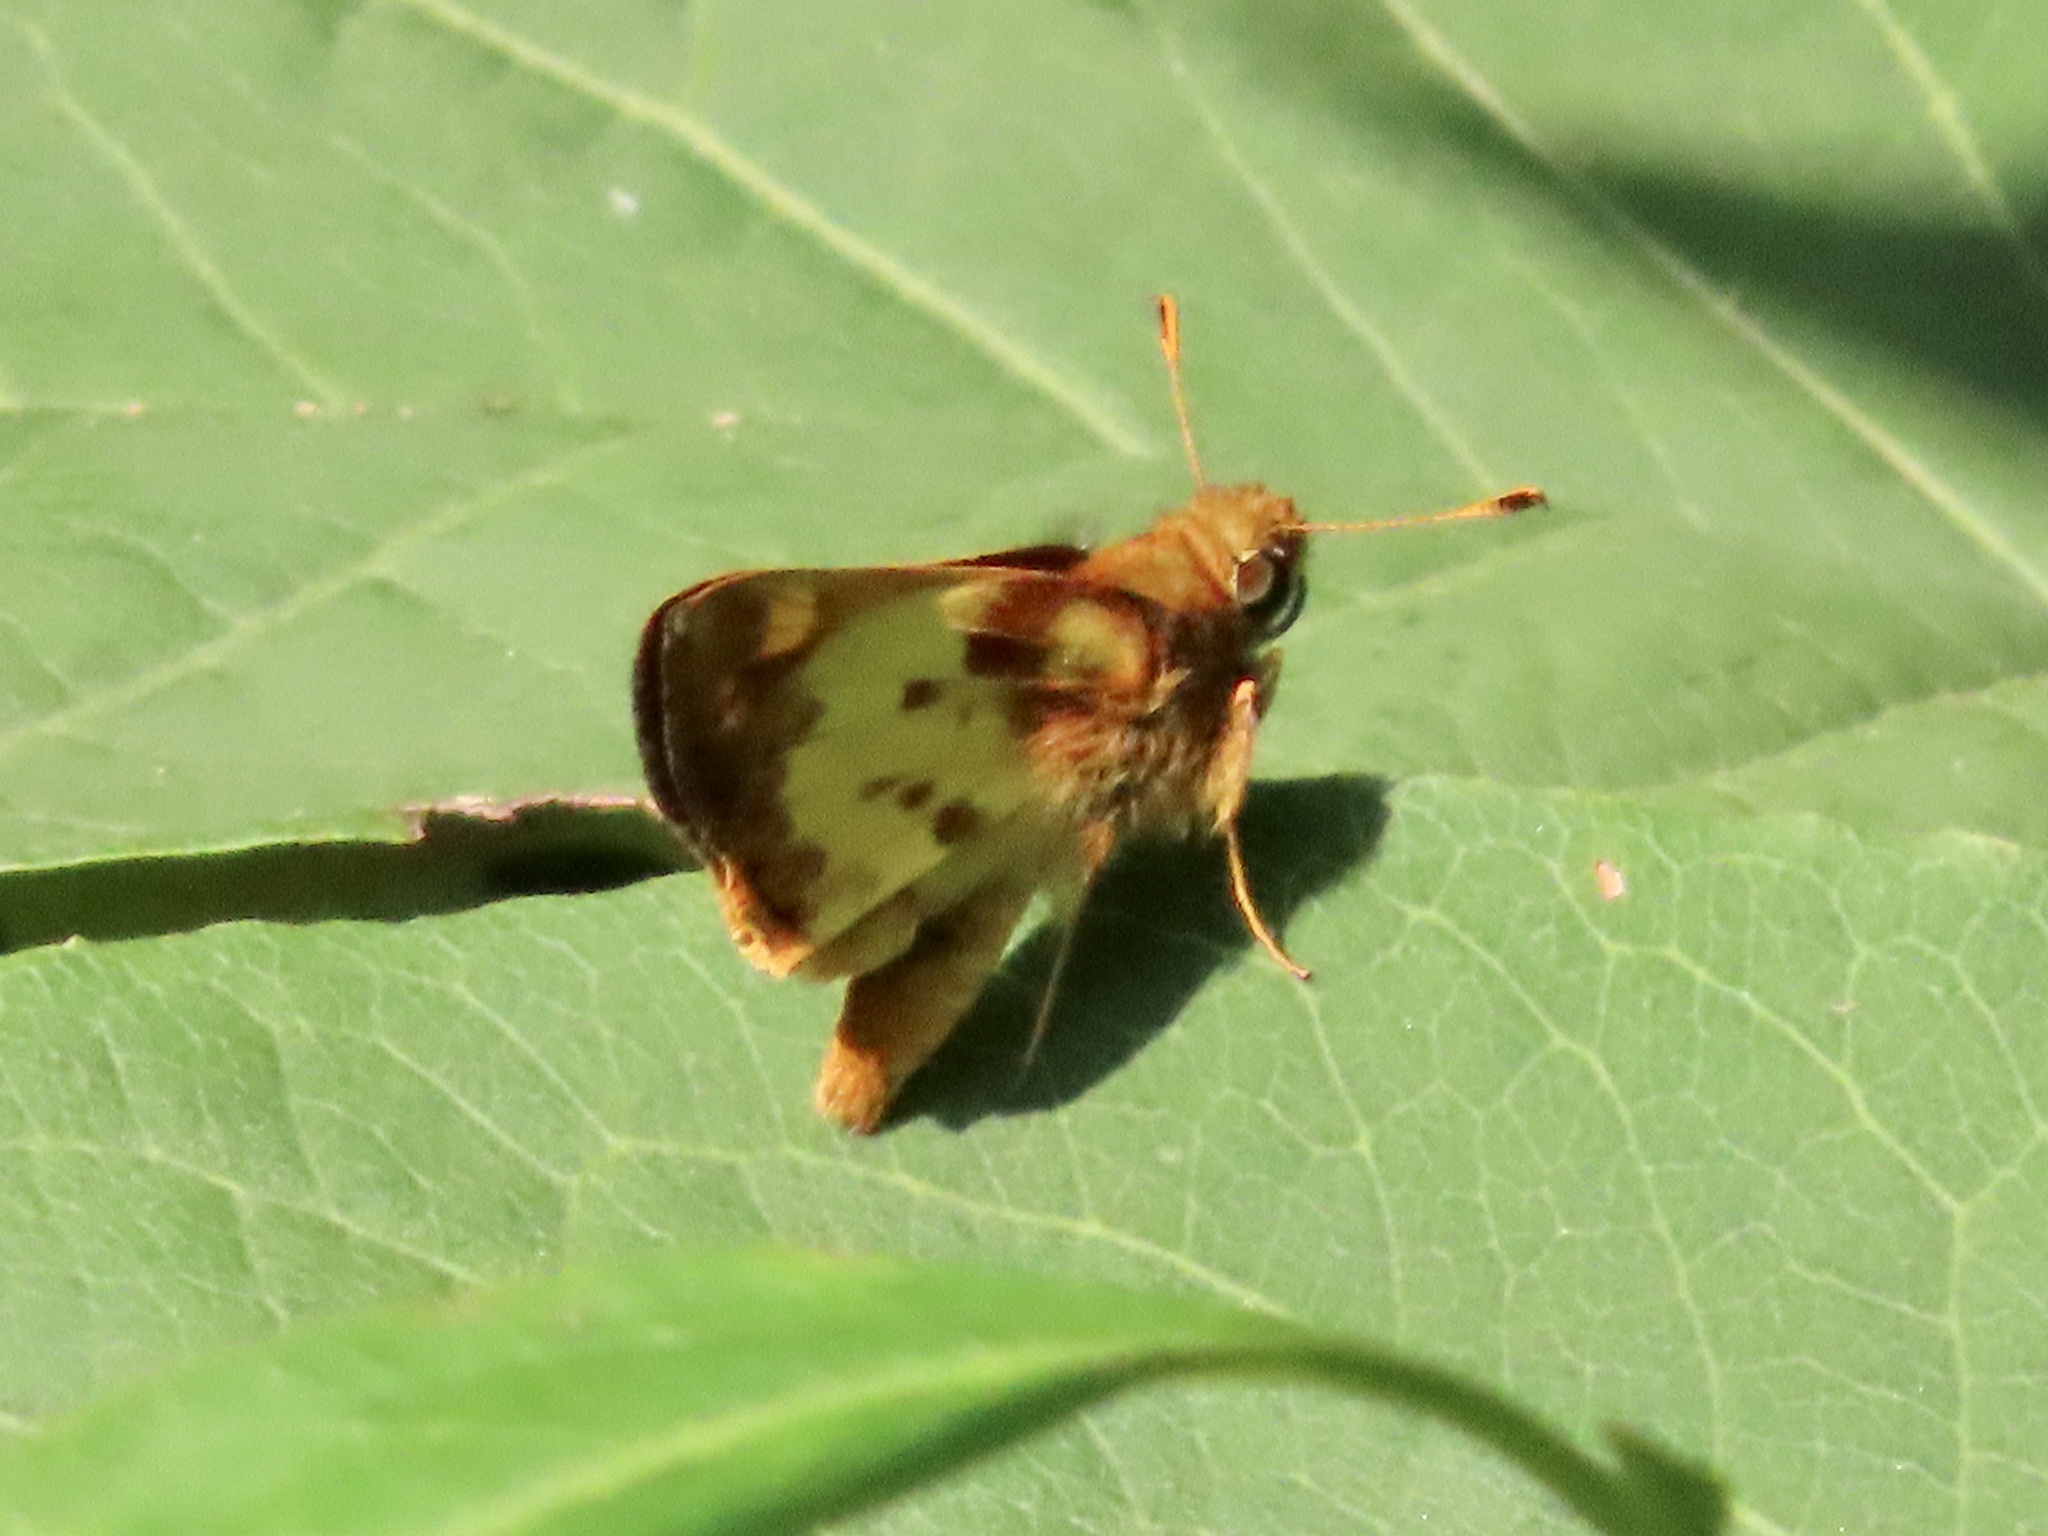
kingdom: Animalia
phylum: Arthropoda
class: Insecta
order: Lepidoptera
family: Hesperiidae
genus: Lon
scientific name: Lon zabulon
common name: Zabulon skipper
